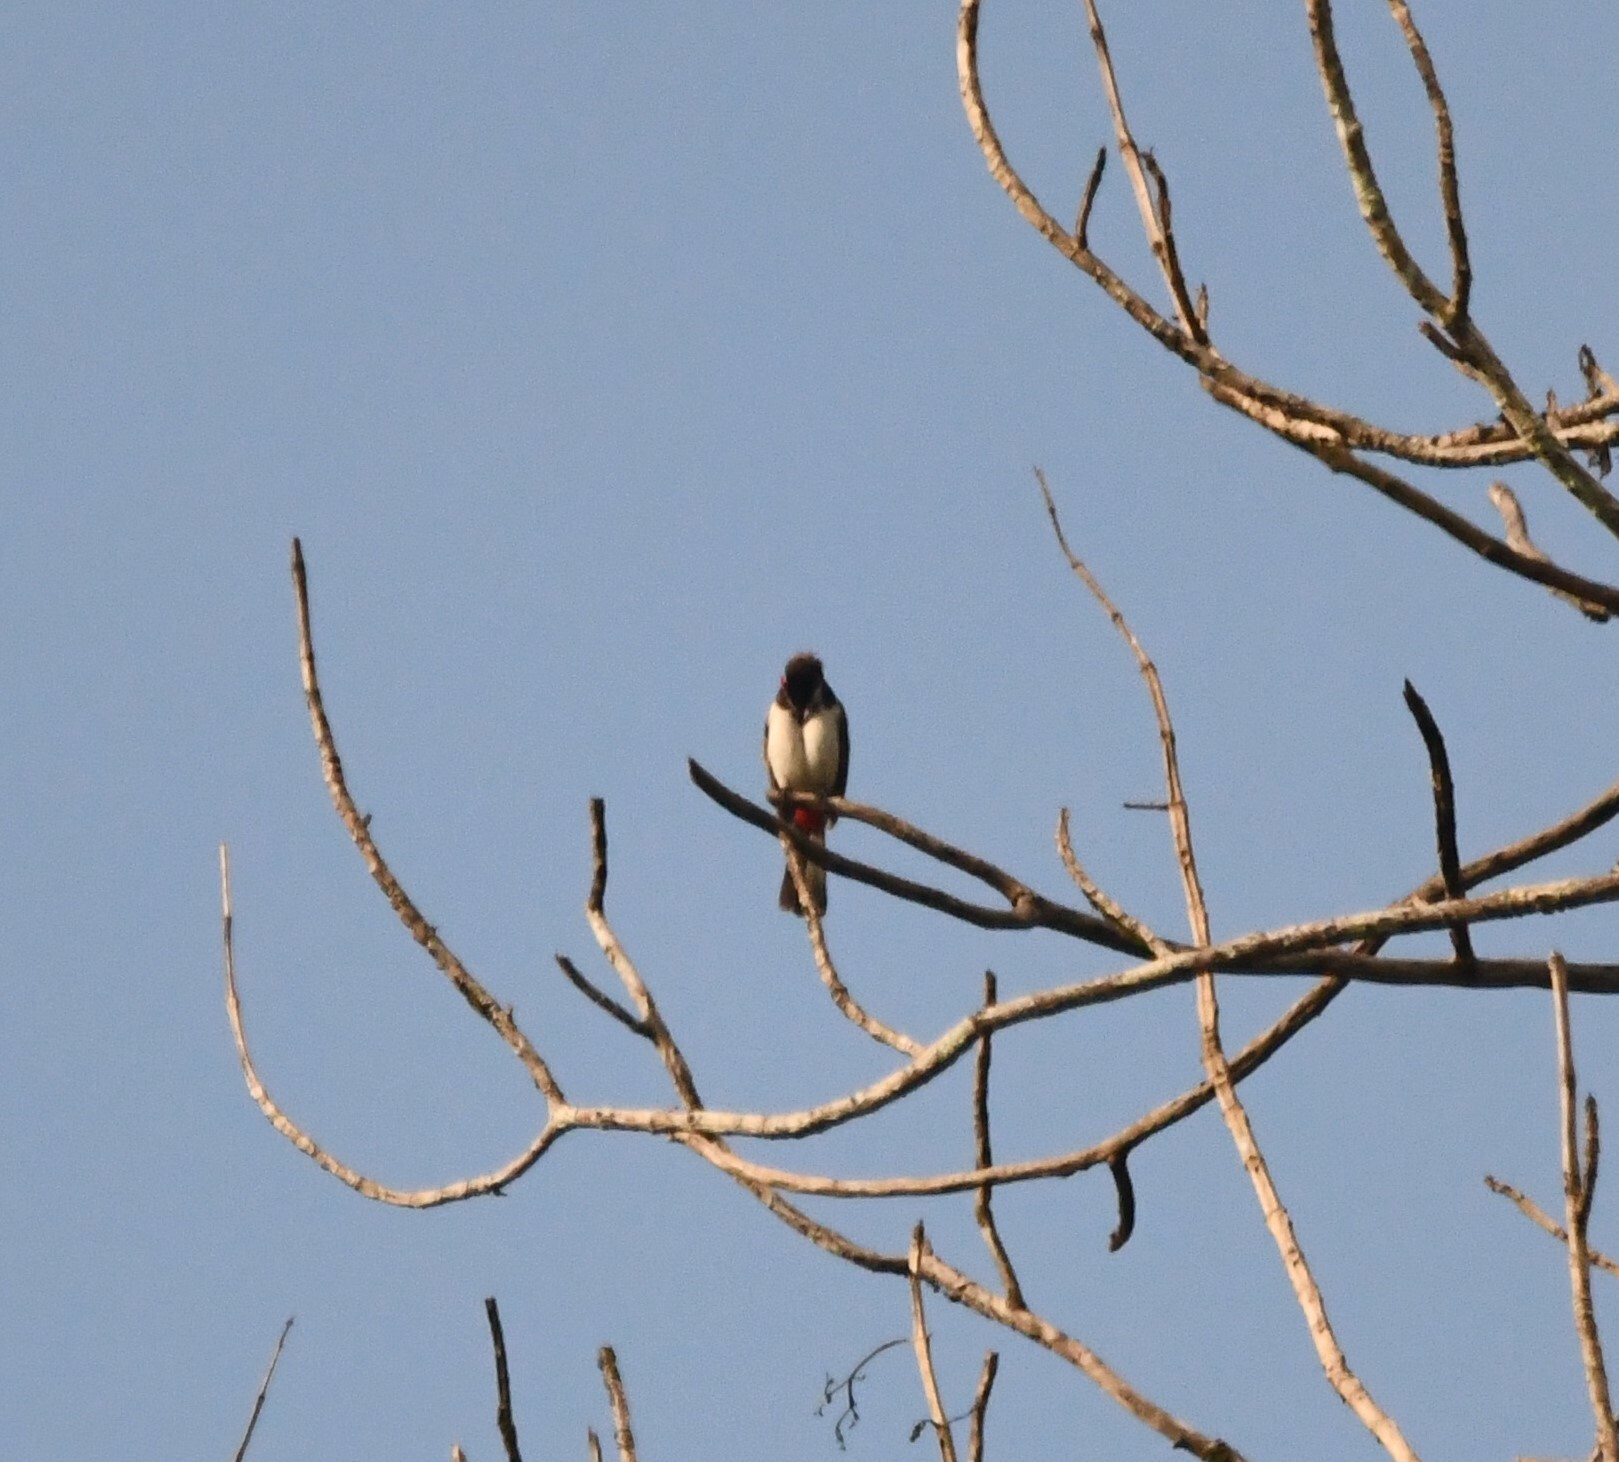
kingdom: Animalia
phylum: Chordata
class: Aves
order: Passeriformes
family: Pycnonotidae
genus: Pycnonotus
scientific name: Pycnonotus jocosus
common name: Red-whiskered bulbul
